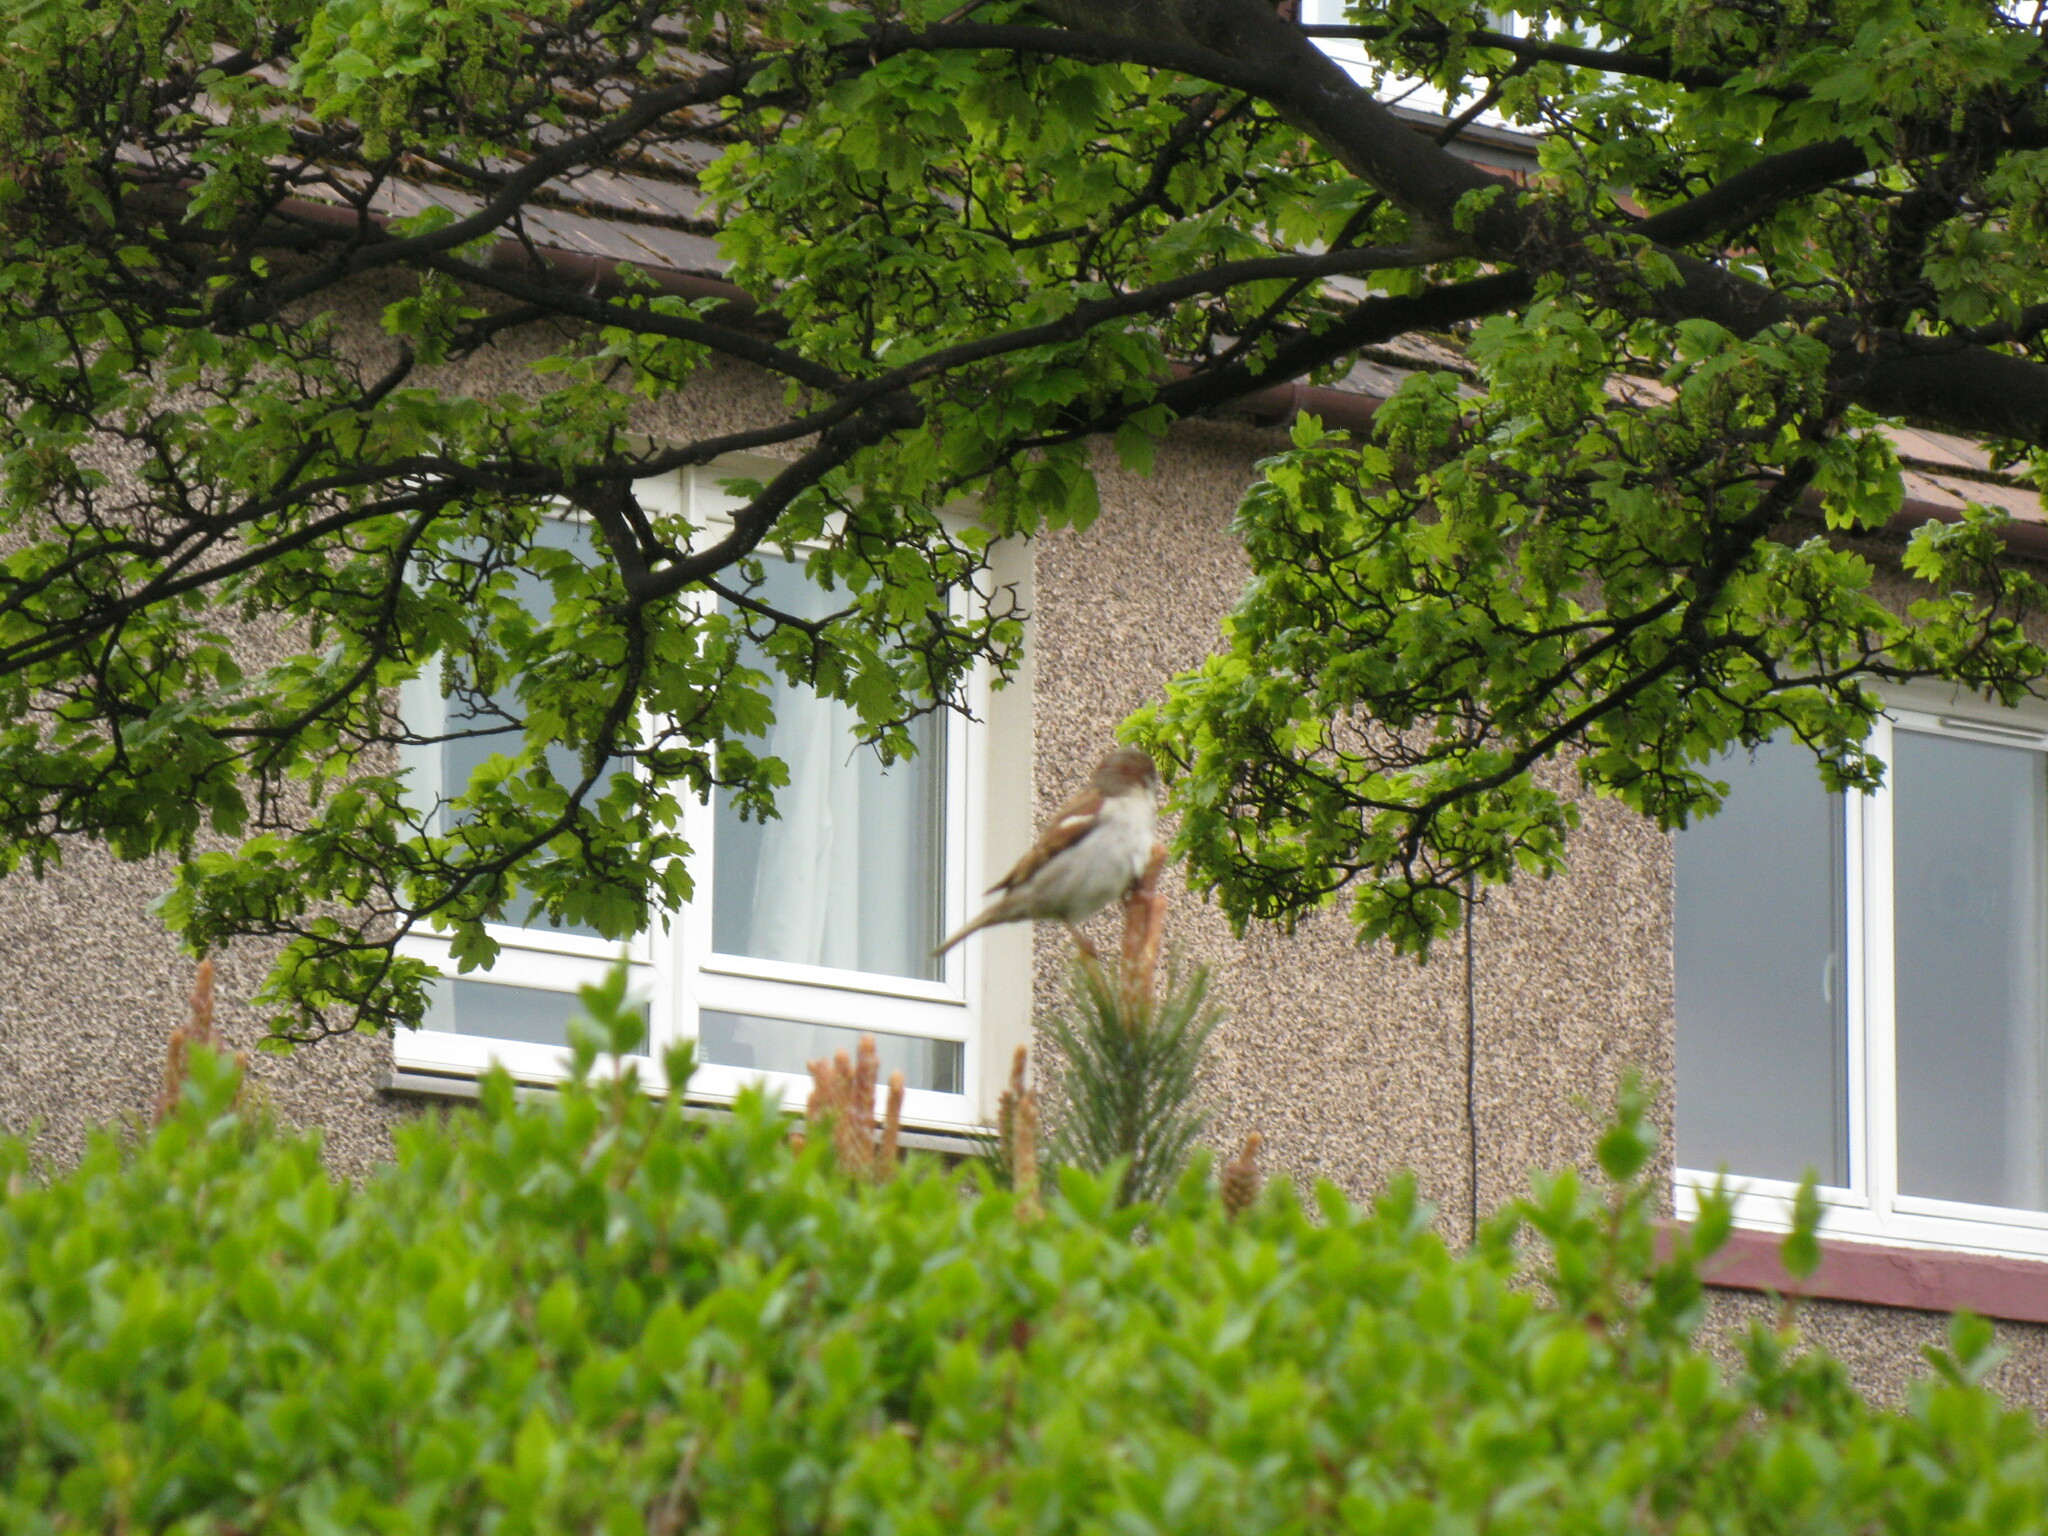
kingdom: Animalia
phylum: Chordata
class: Aves
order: Passeriformes
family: Passeridae
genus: Passer
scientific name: Passer domesticus
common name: House sparrow
